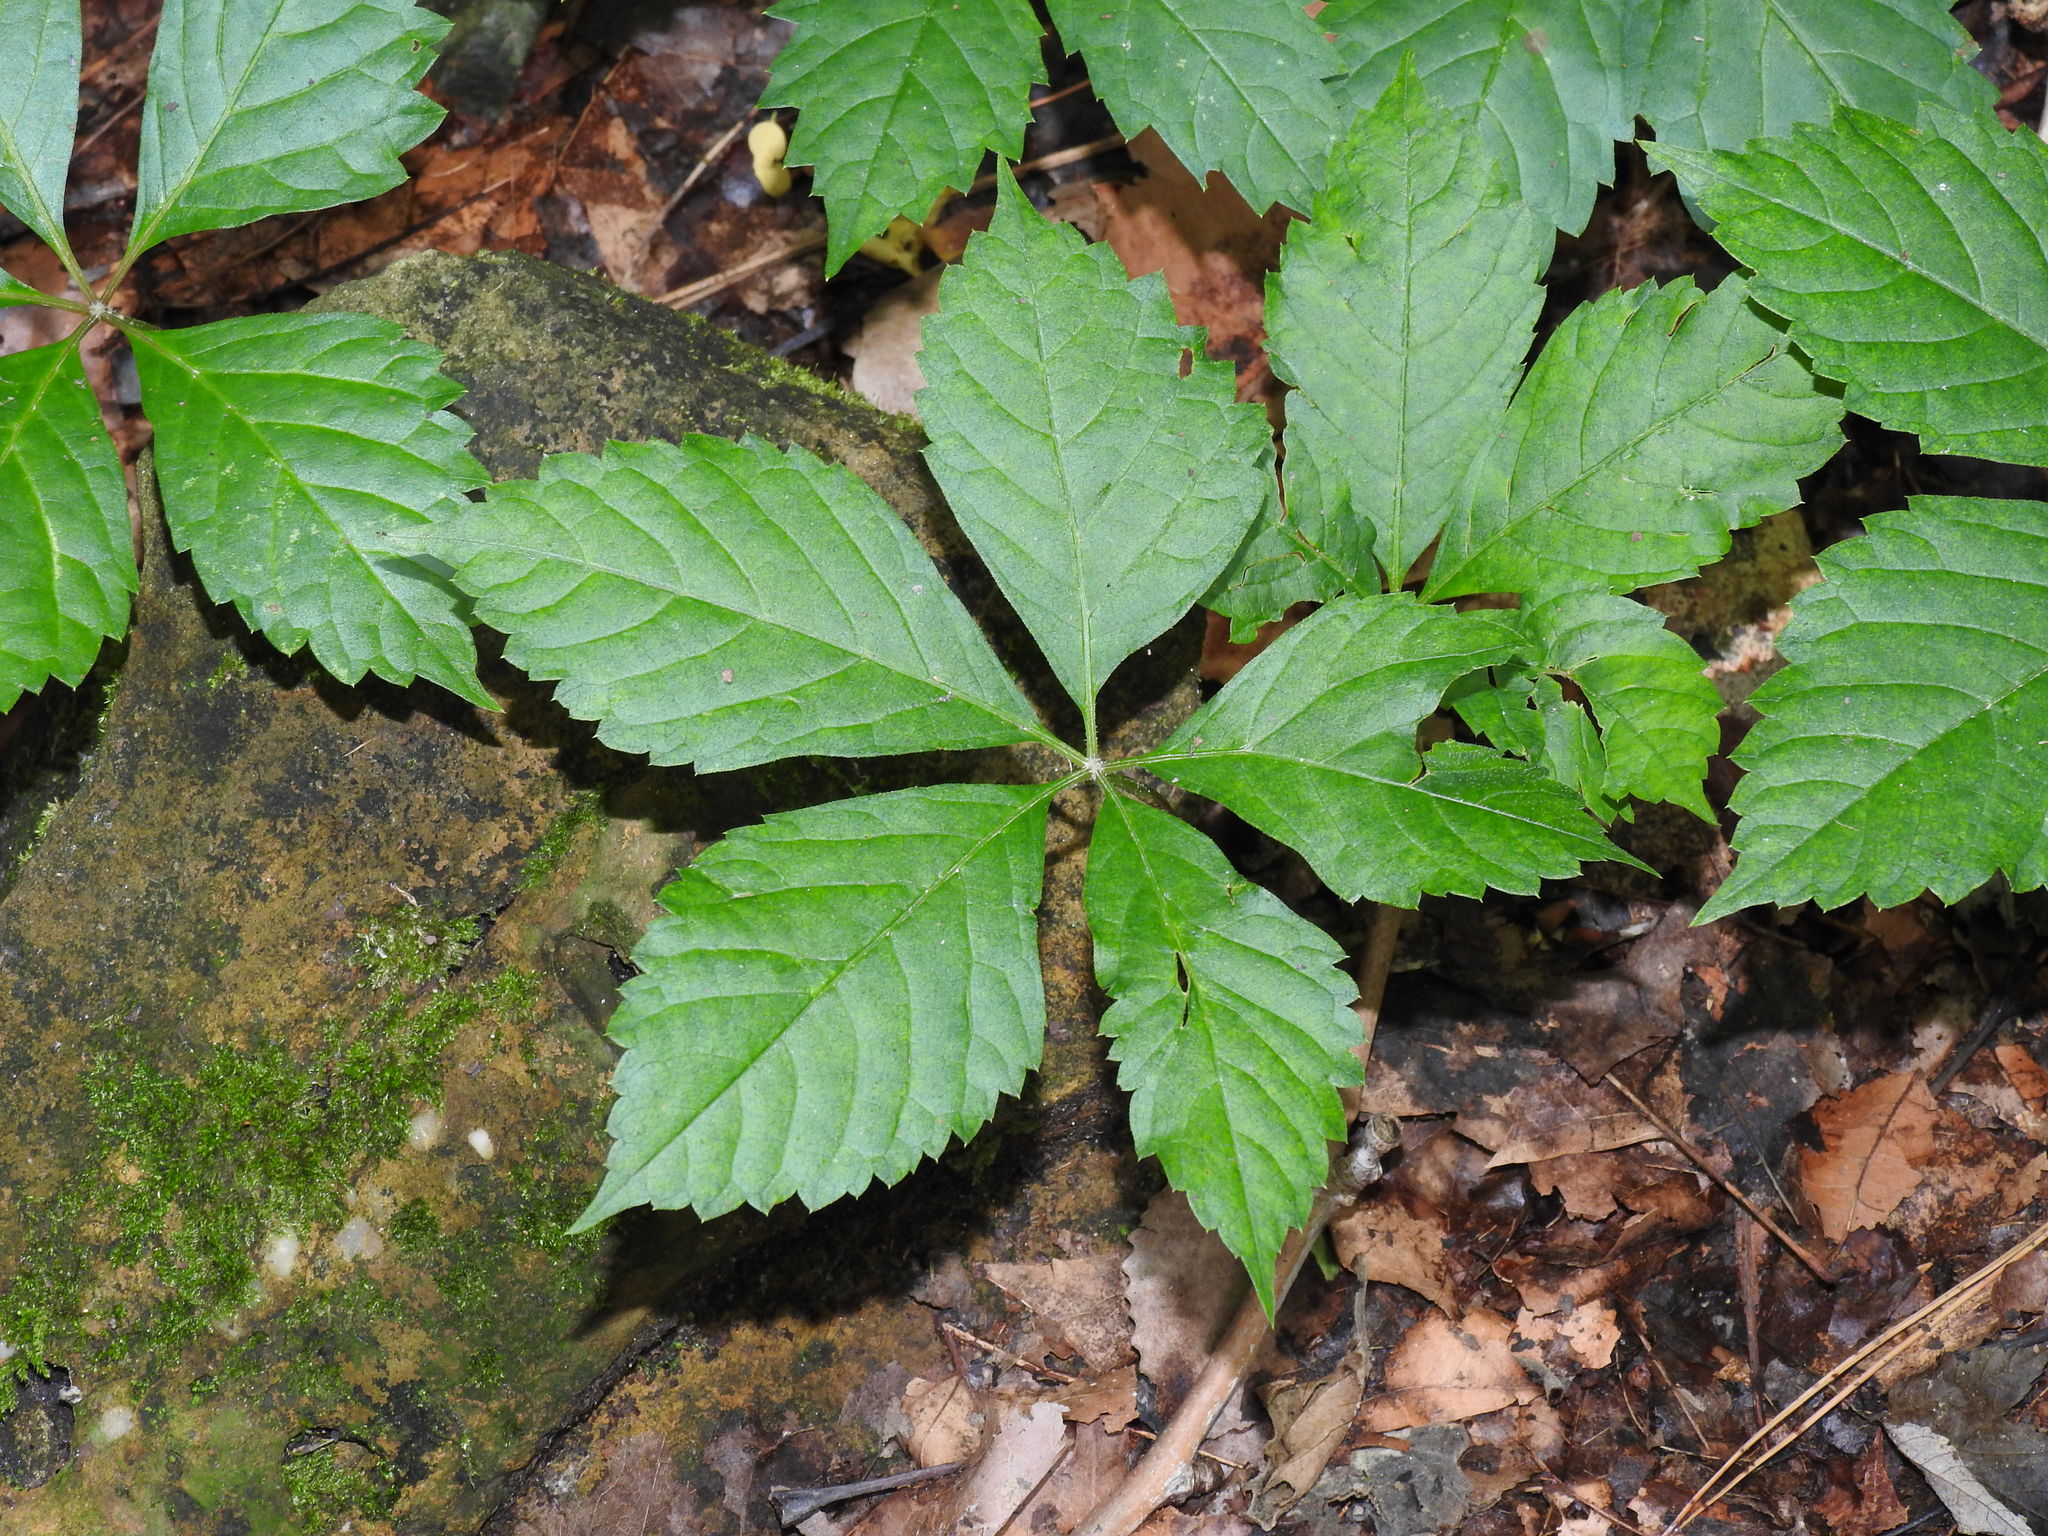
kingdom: Plantae
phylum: Tracheophyta
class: Magnoliopsida
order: Vitales
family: Vitaceae
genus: Parthenocissus
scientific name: Parthenocissus quinquefolia
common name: Virginia-creeper
